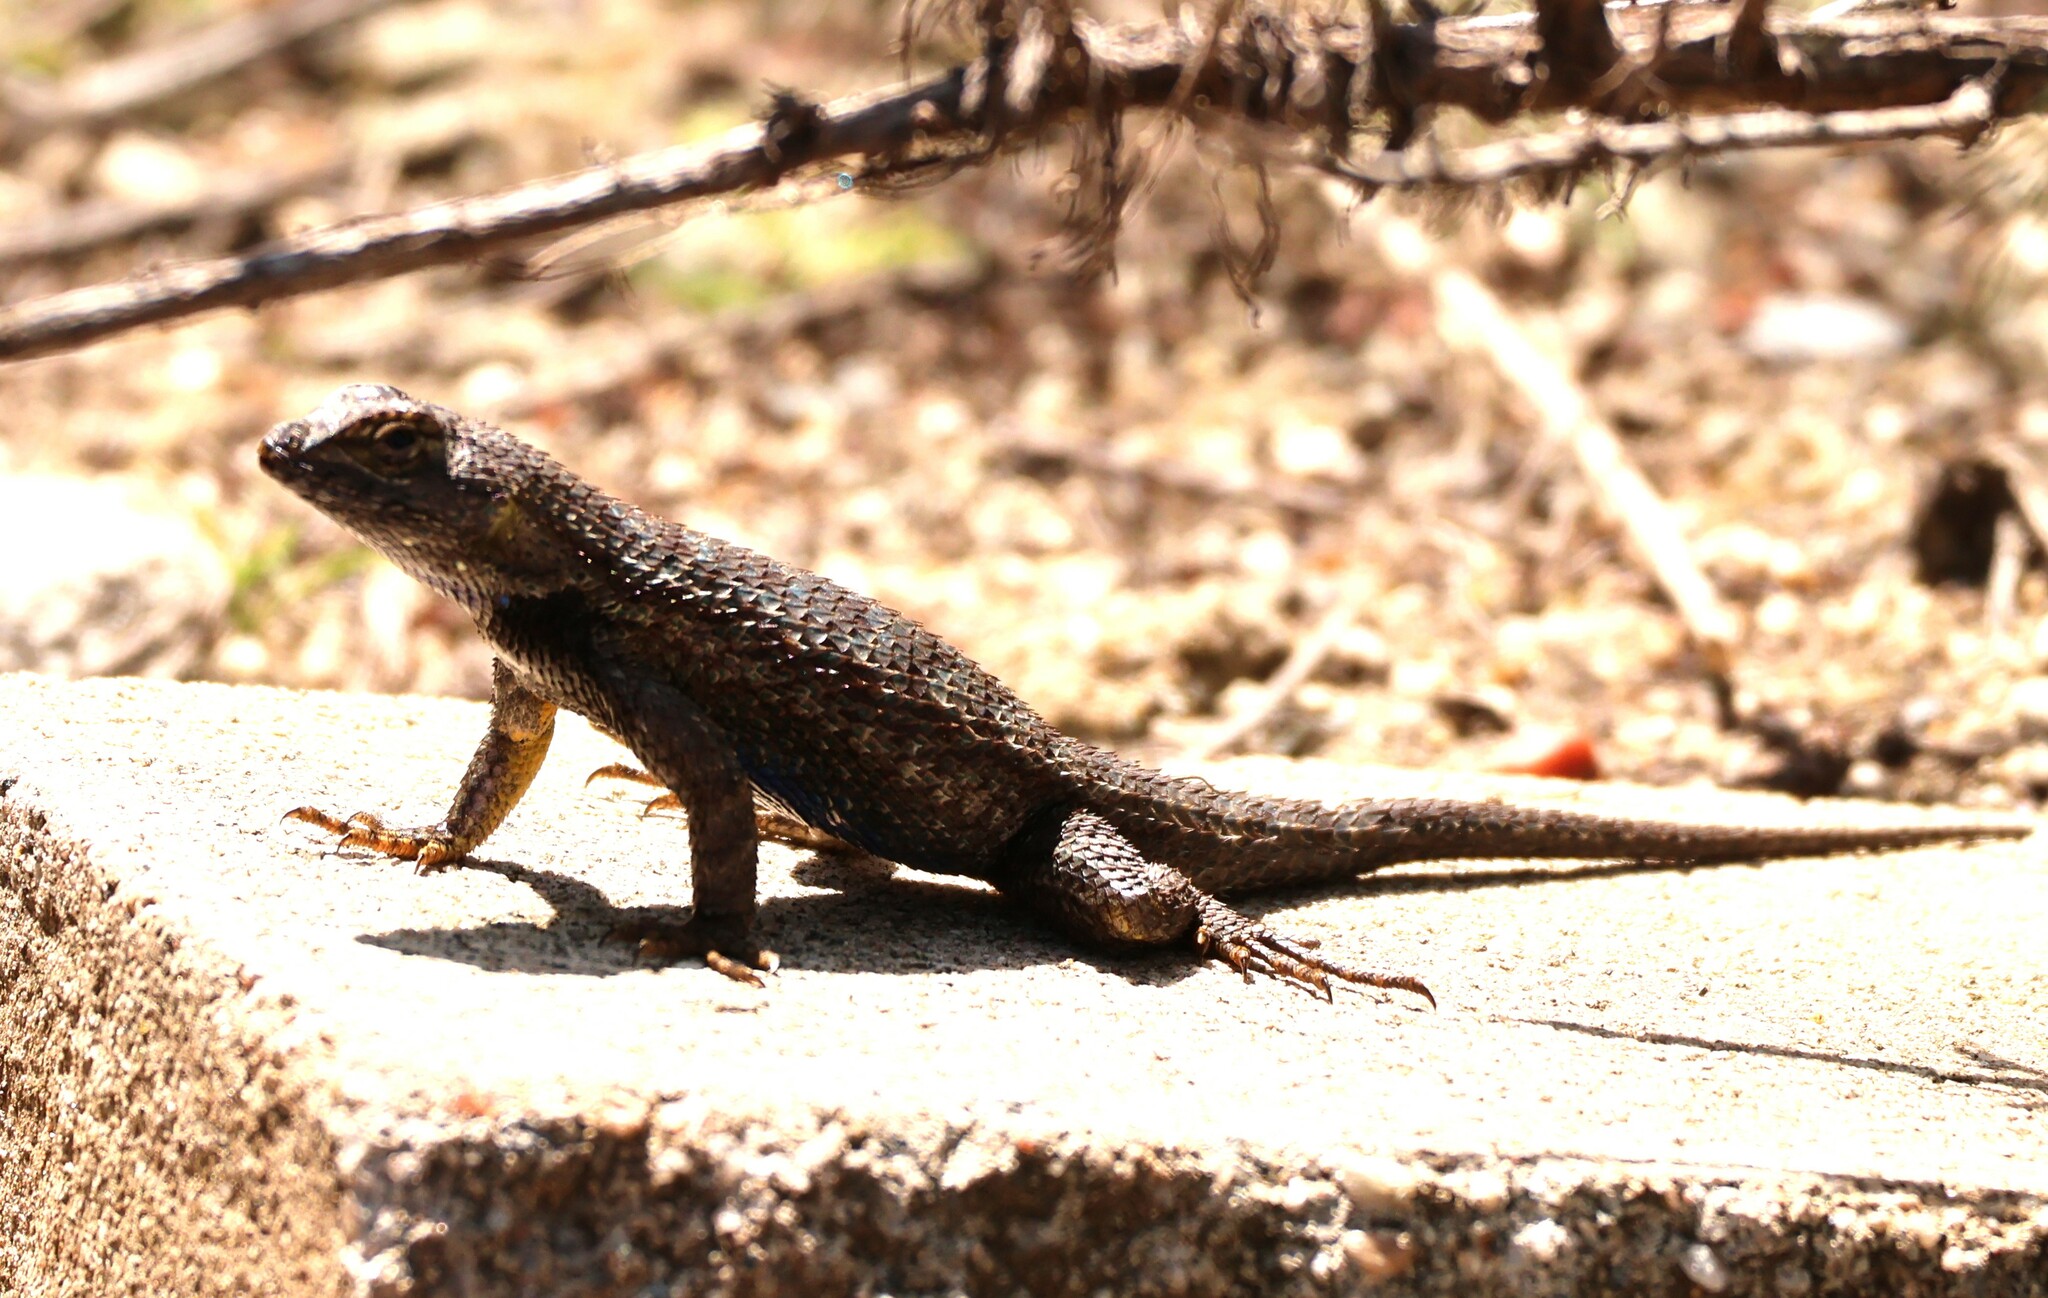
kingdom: Animalia
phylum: Chordata
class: Squamata
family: Phrynosomatidae
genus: Sceloporus
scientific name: Sceloporus occidentalis
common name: Western fence lizard
